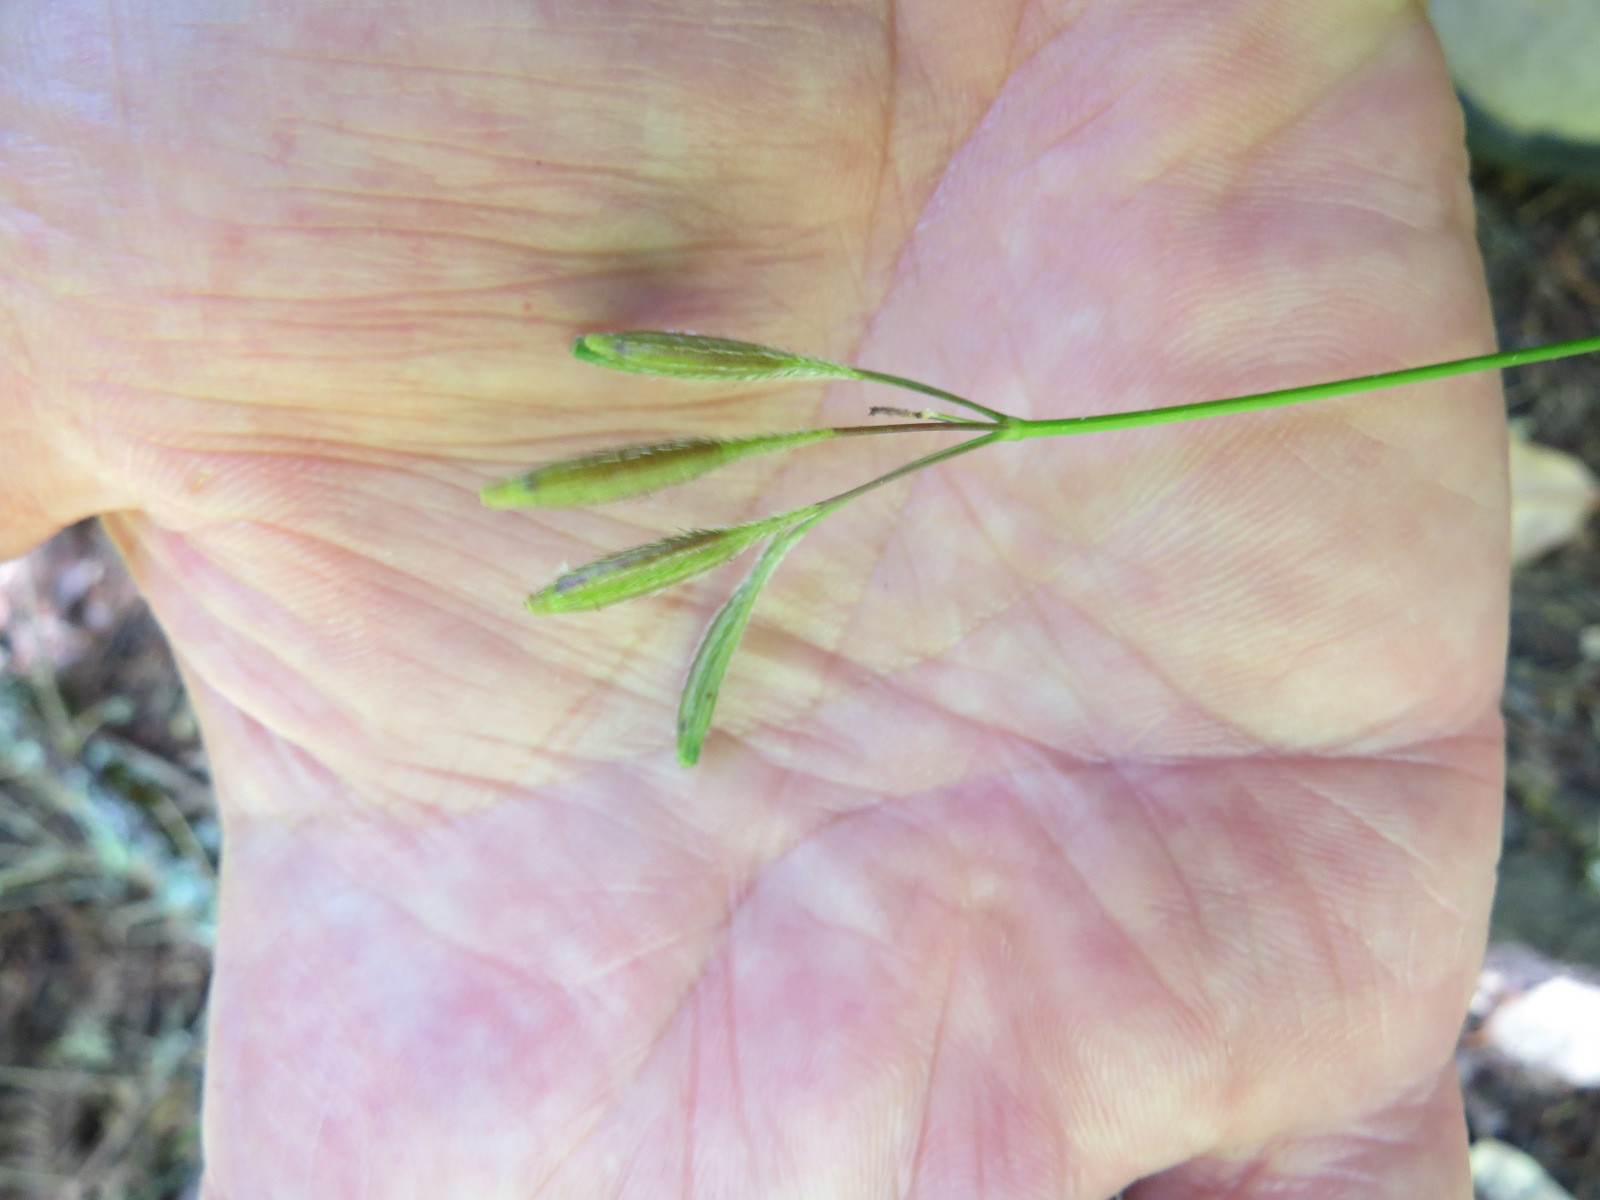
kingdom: Plantae
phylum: Tracheophyta
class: Magnoliopsida
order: Apiales
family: Apiaceae
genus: Osmorhiza
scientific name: Osmorhiza berteroi
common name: Mountain sweet cicely
